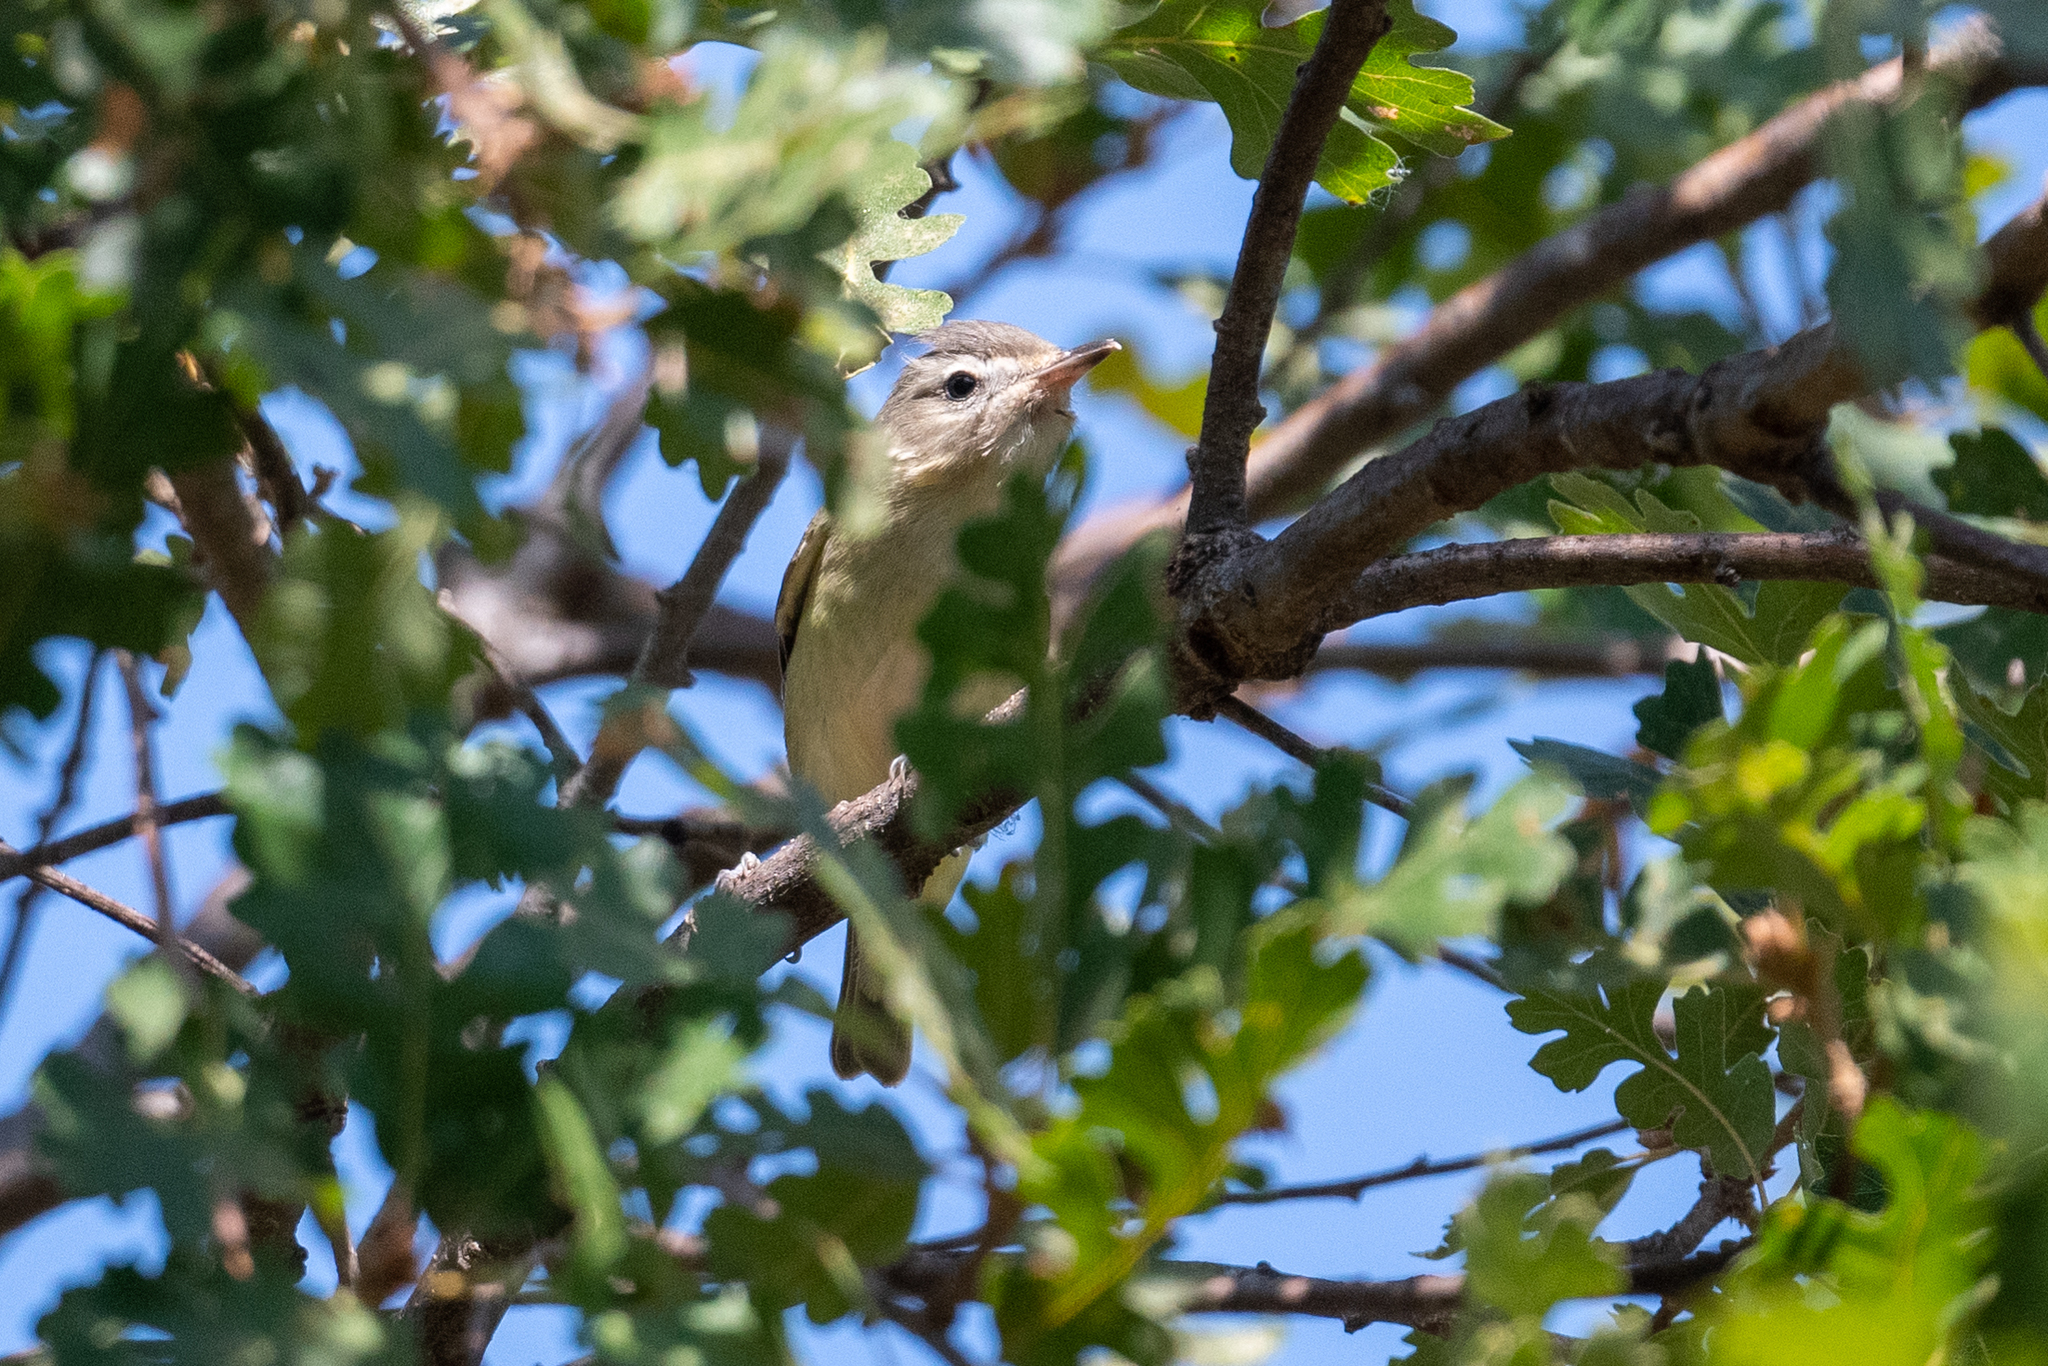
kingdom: Animalia
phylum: Chordata
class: Aves
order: Passeriformes
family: Vireonidae
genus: Vireo
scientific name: Vireo gilvus
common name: Warbling vireo
